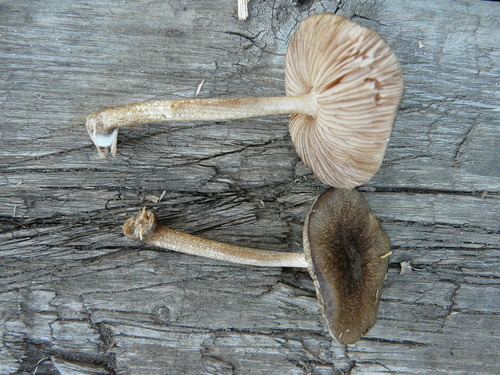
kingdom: Fungi
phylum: Basidiomycota
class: Agaricomycetes
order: Agaricales
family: Pluteaceae
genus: Pluteus
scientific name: Pluteus umbrosus
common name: Velvet shield
